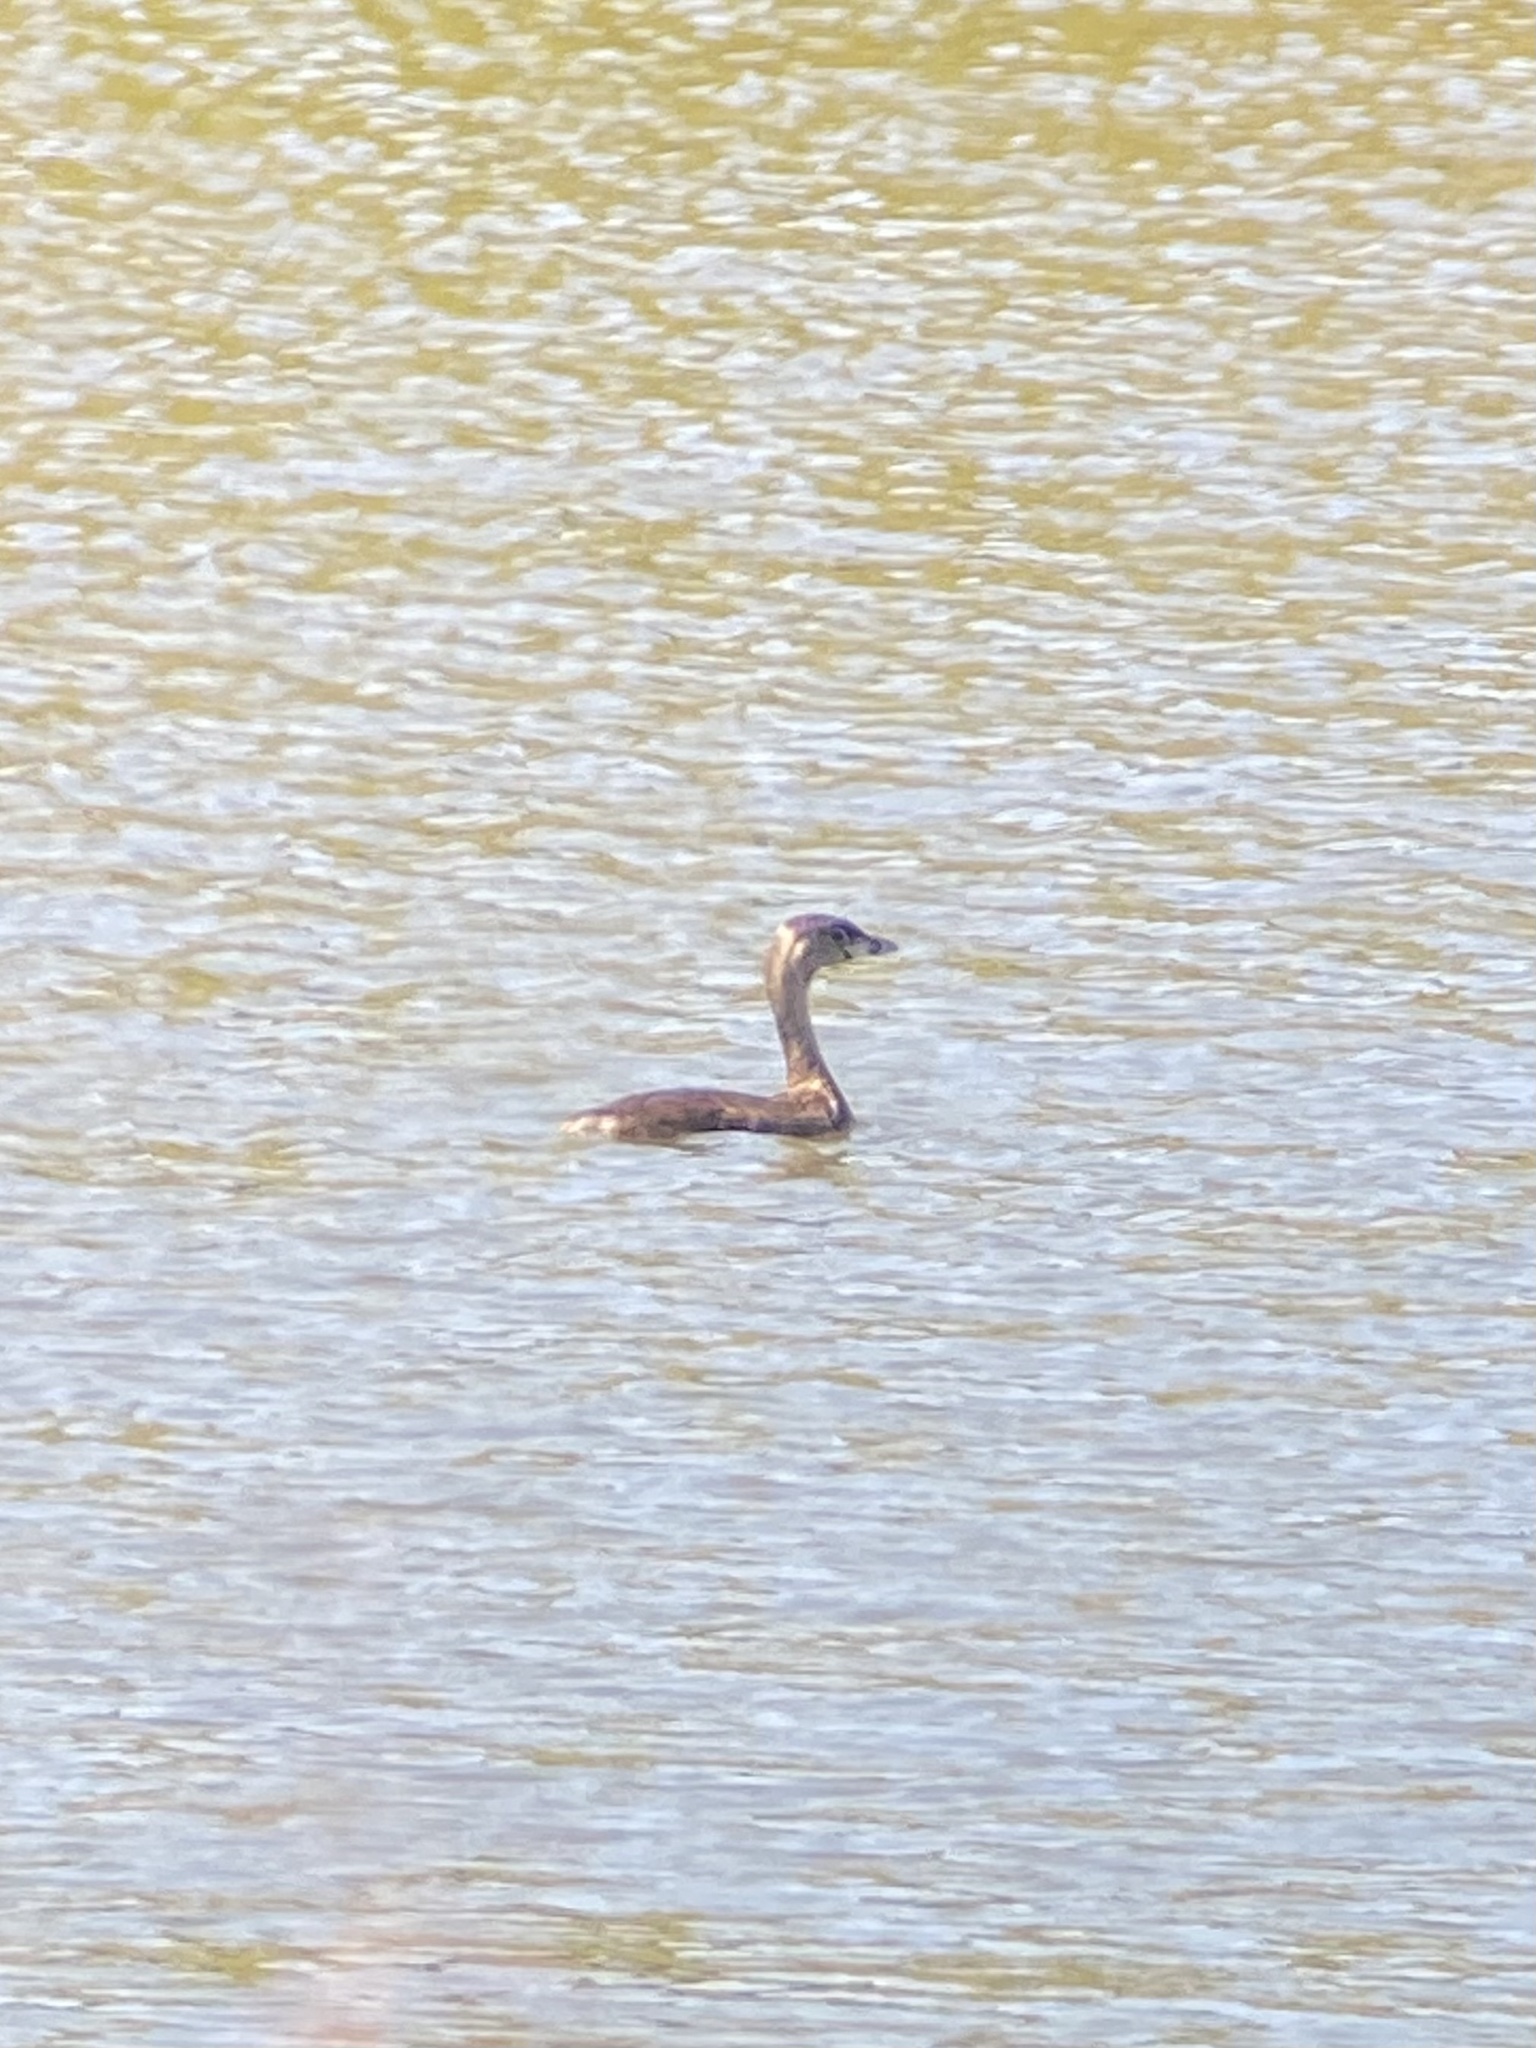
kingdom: Animalia
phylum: Chordata
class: Aves
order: Podicipediformes
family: Podicipedidae
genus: Podilymbus
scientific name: Podilymbus podiceps
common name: Pied-billed grebe
